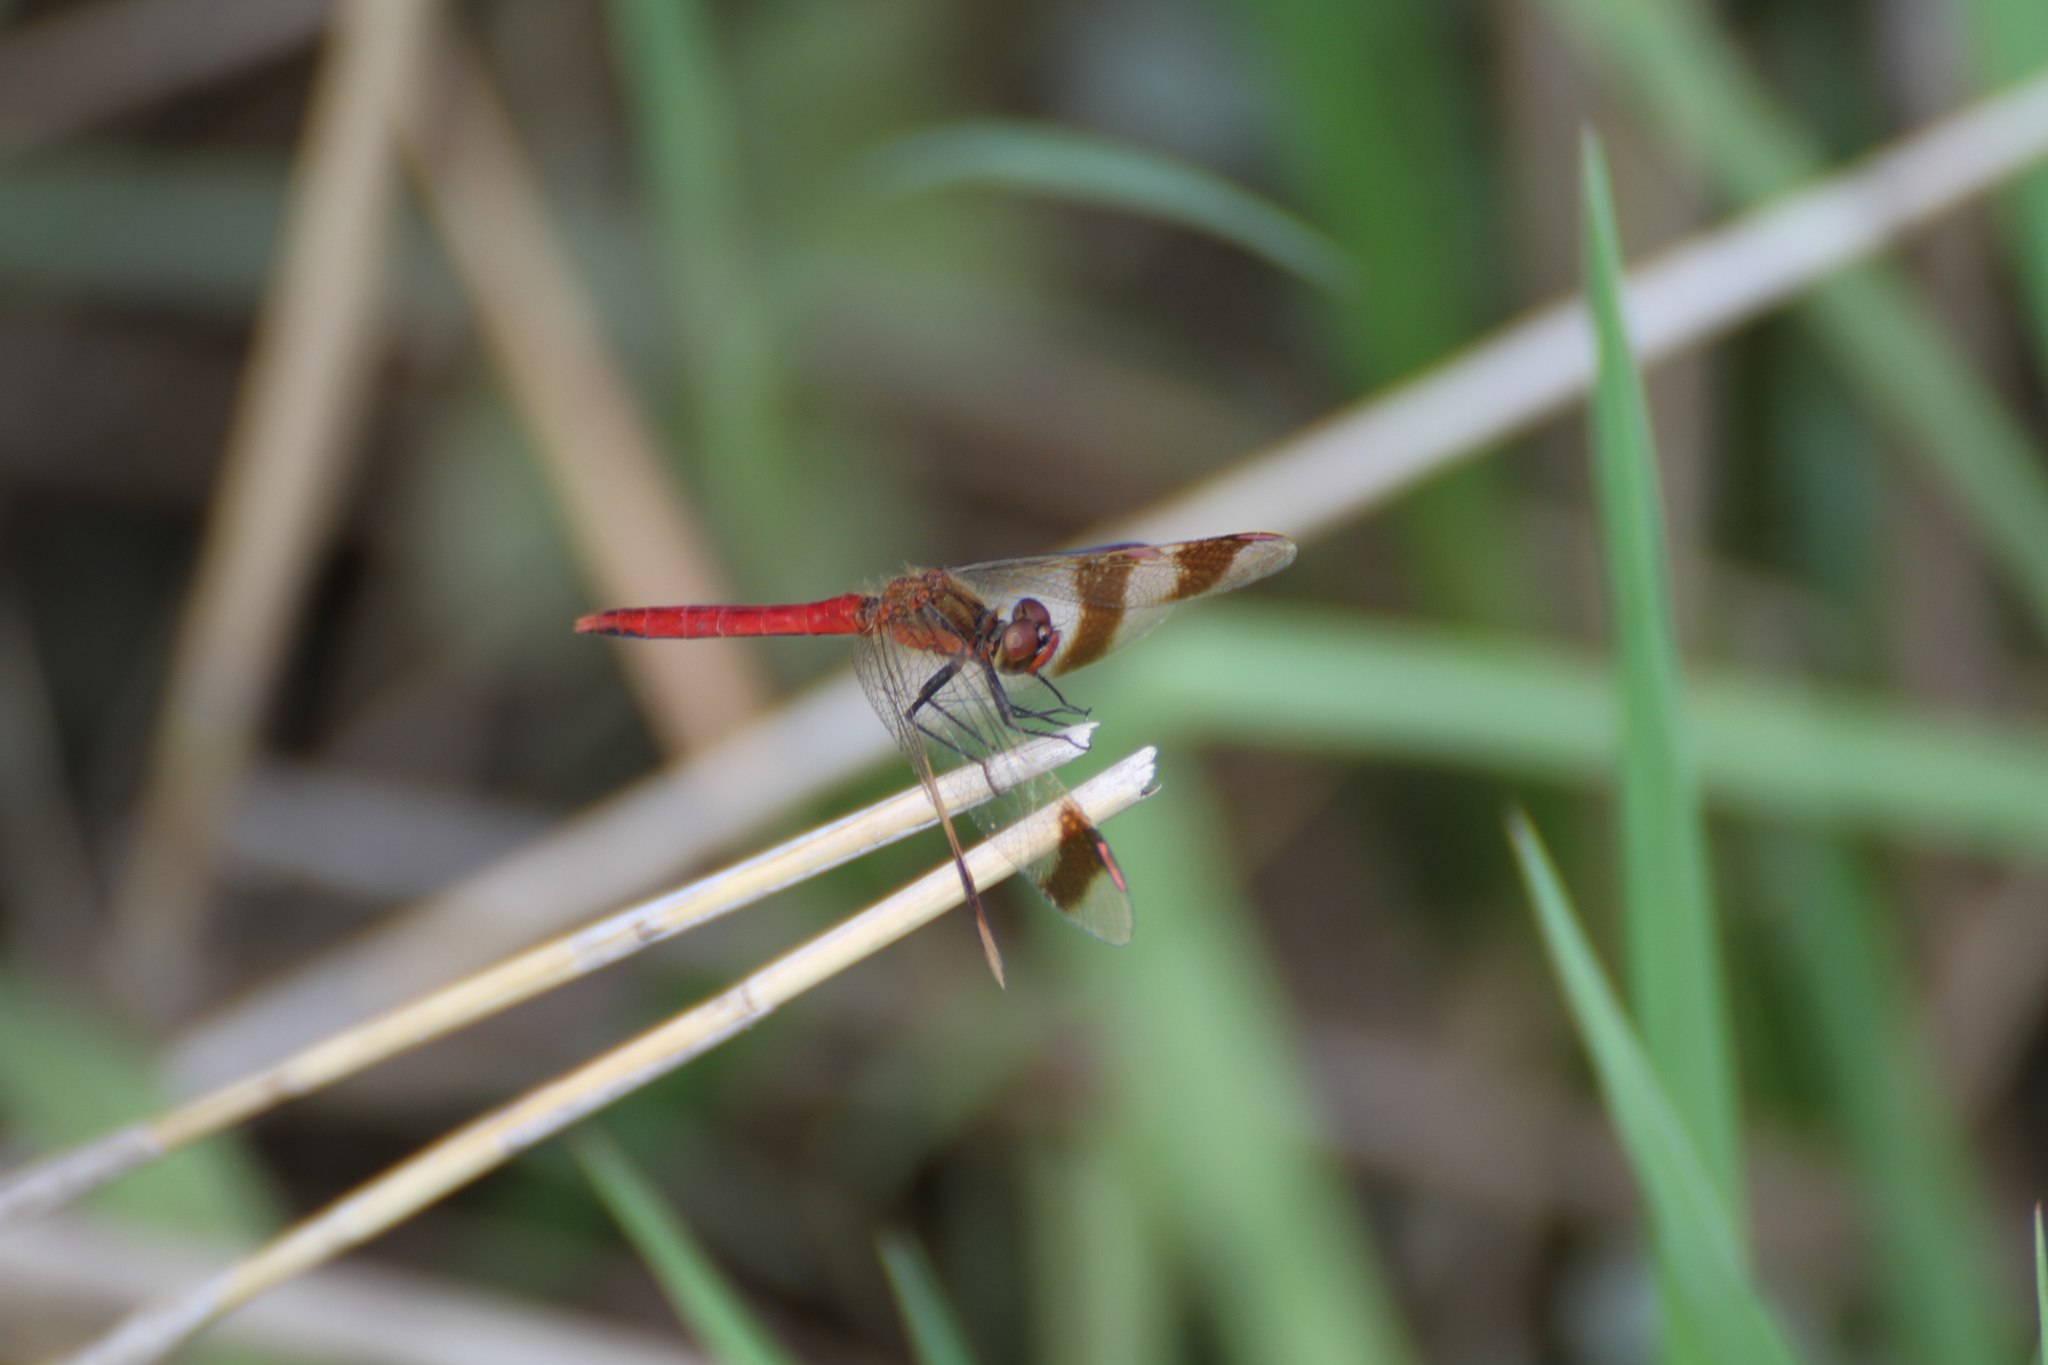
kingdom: Animalia
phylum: Arthropoda
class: Insecta
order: Odonata
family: Libellulidae
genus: Sympetrum
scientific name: Sympetrum pedemontanum
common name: Banded darter
